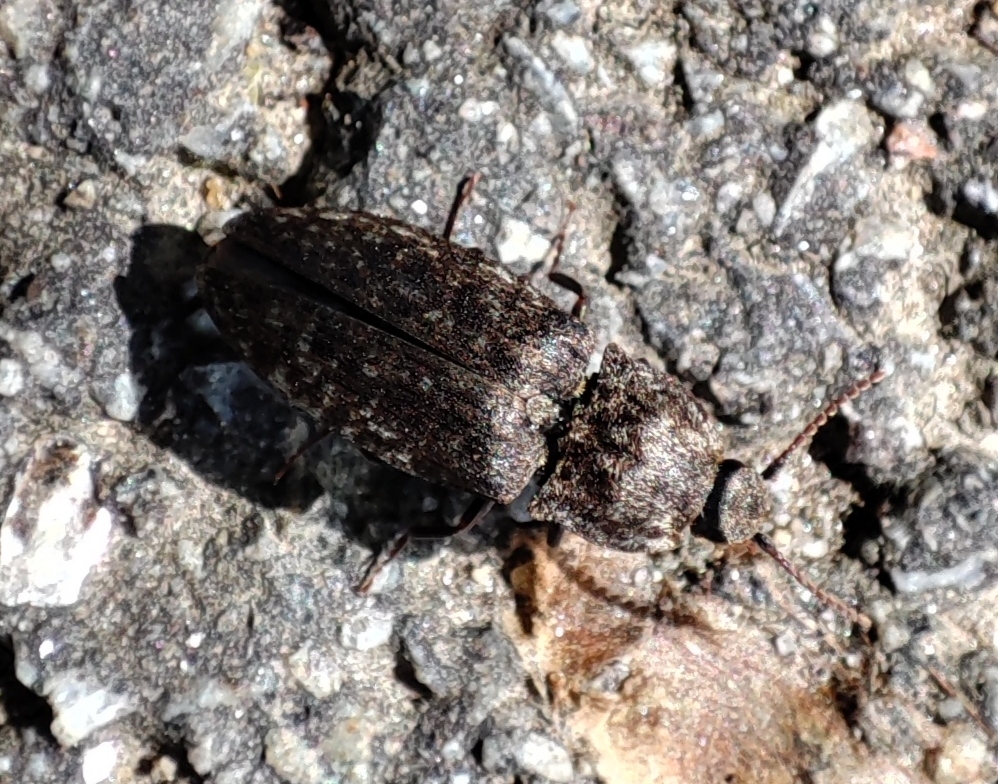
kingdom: Animalia
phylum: Arthropoda
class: Insecta
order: Coleoptera
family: Elateridae
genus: Agrypnus
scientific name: Agrypnus murinus
